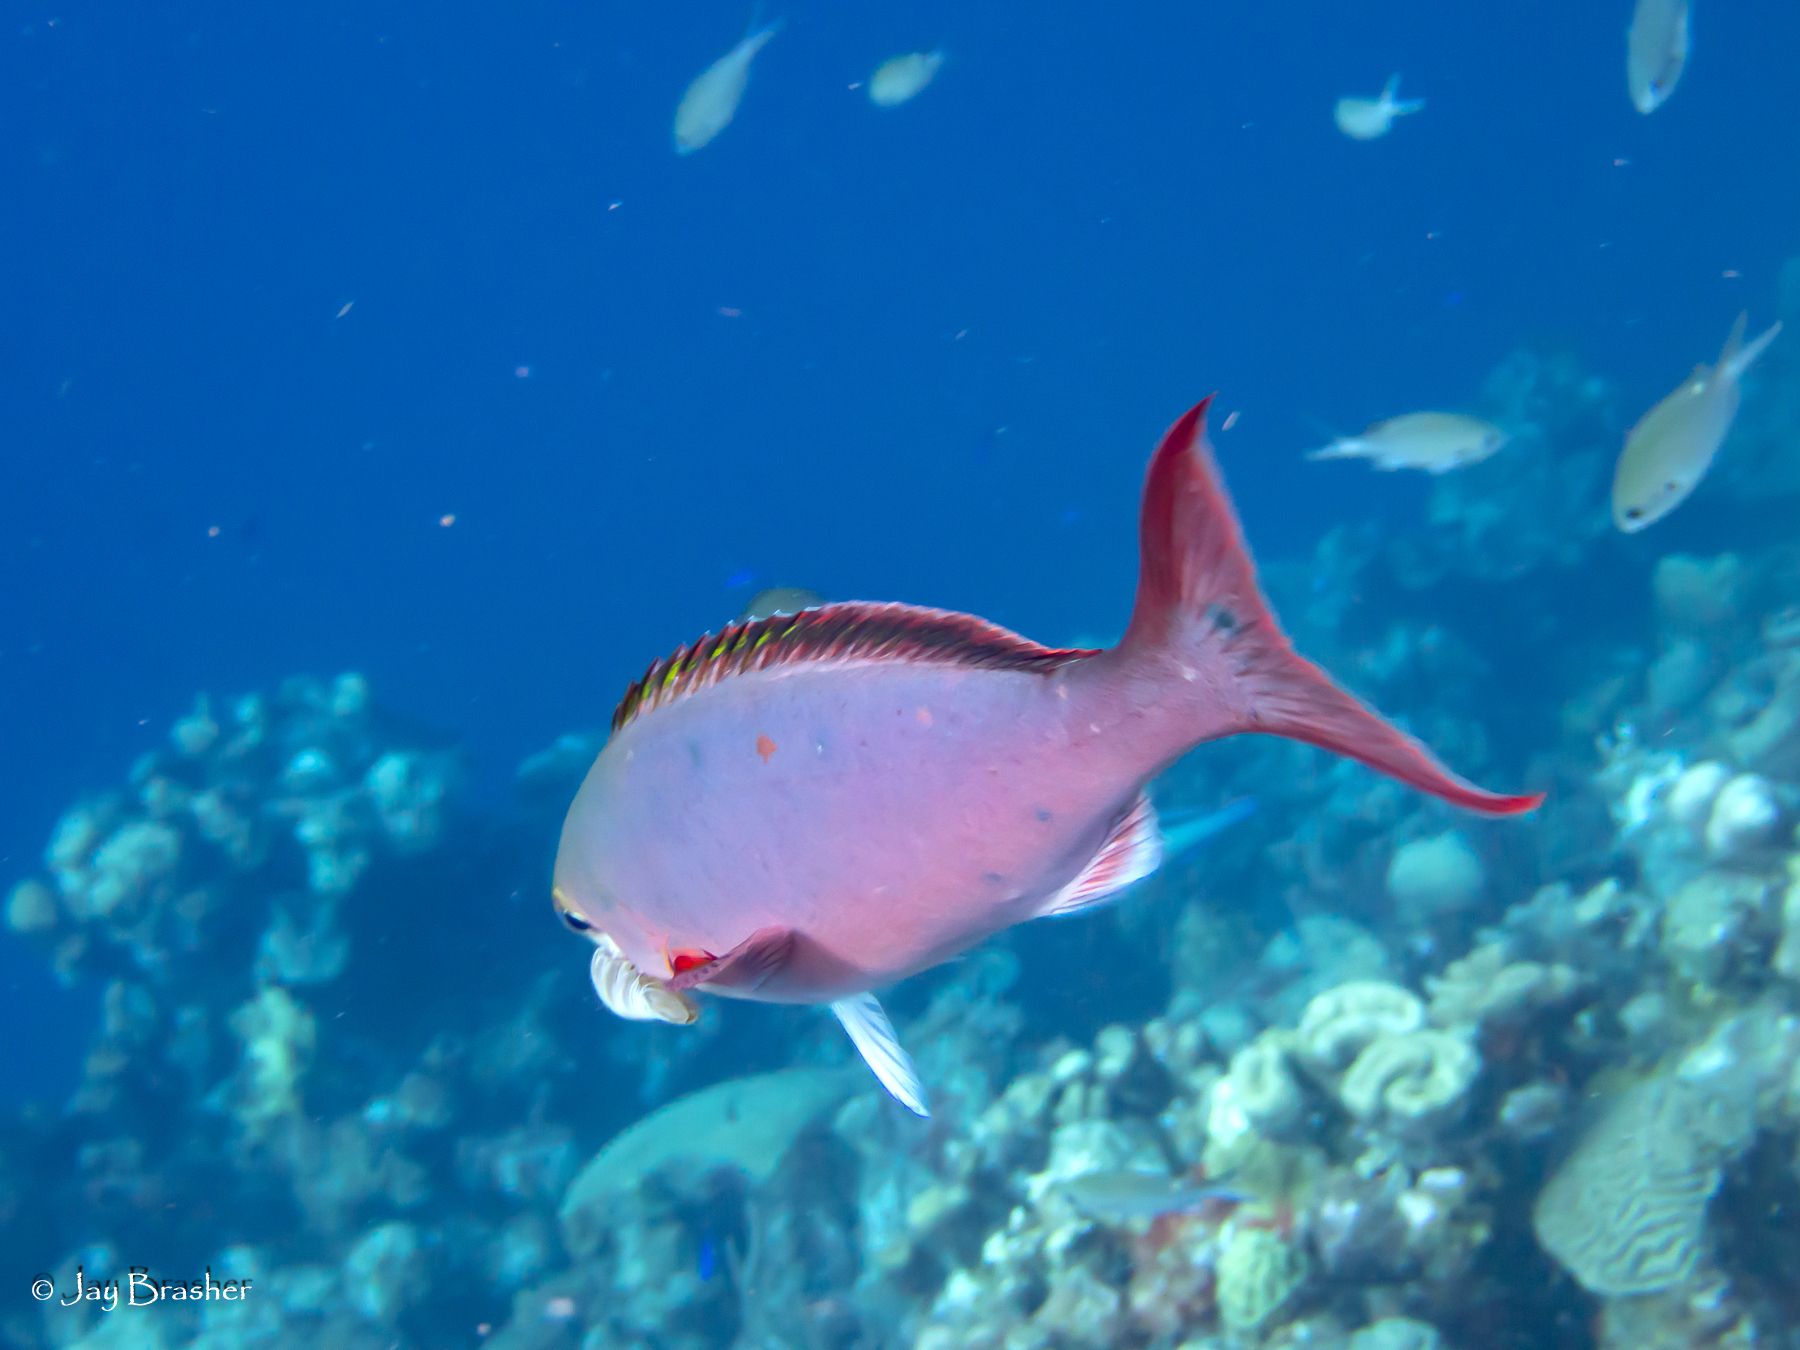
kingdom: Animalia
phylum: Chordata
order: Perciformes
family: Serranidae
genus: Paranthias
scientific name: Paranthias furcifer
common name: Creole-fish
